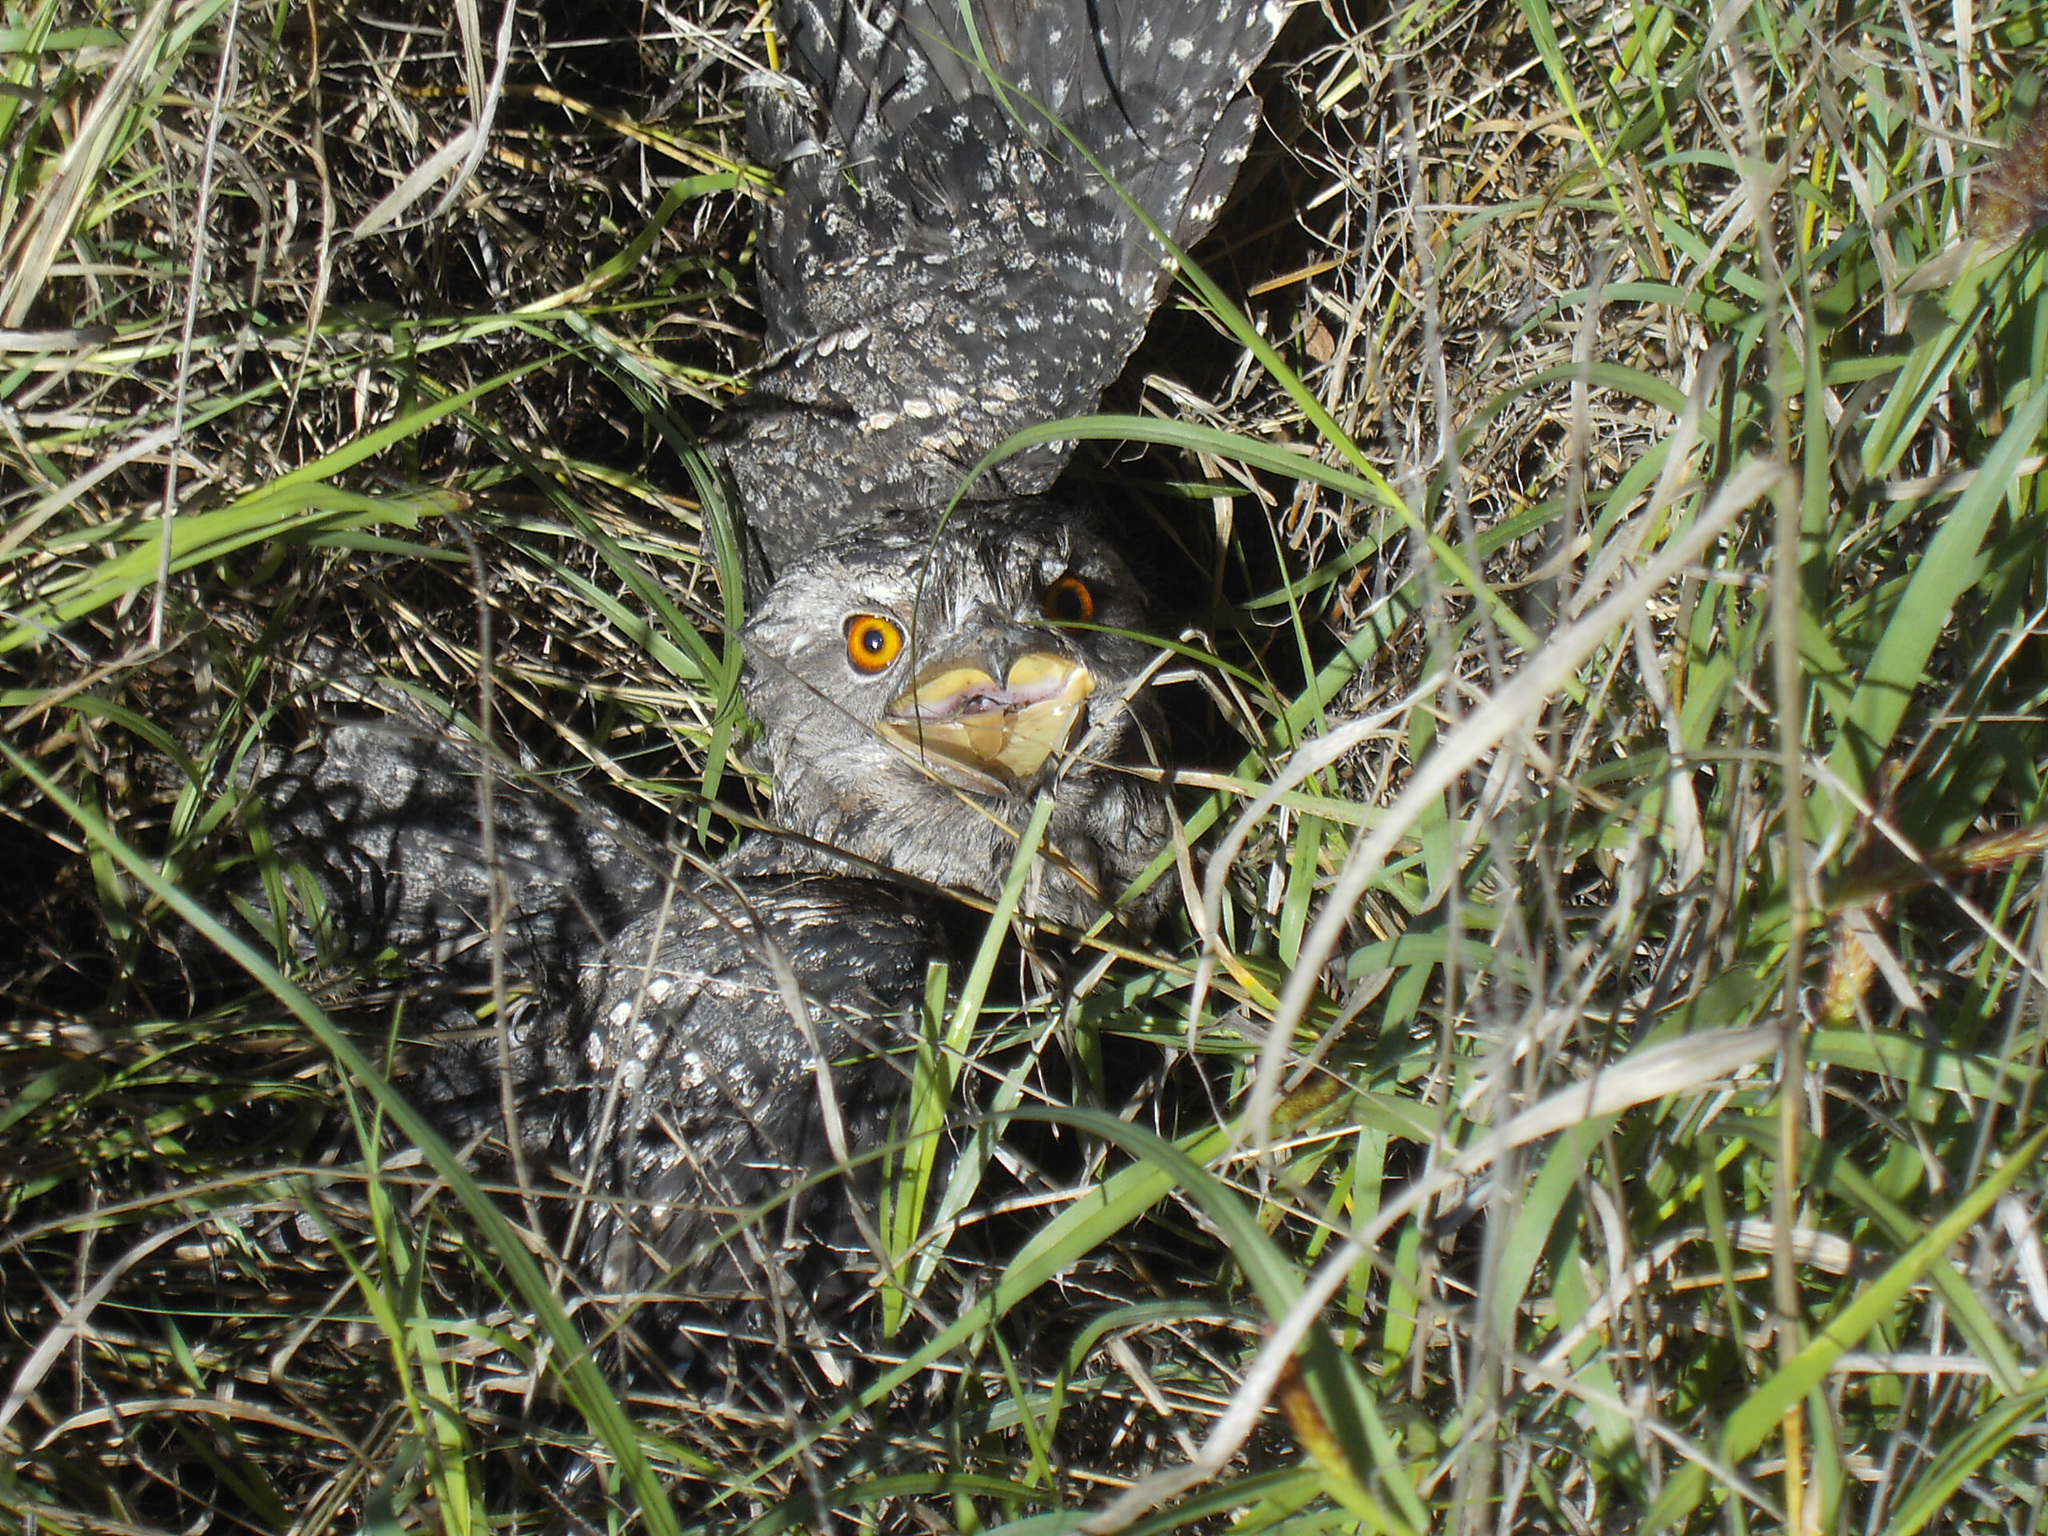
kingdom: Animalia
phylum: Chordata
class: Aves
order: Caprimulgiformes
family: Podargidae
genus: Podargus
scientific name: Podargus strigoides
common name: Tawny frogmouth
